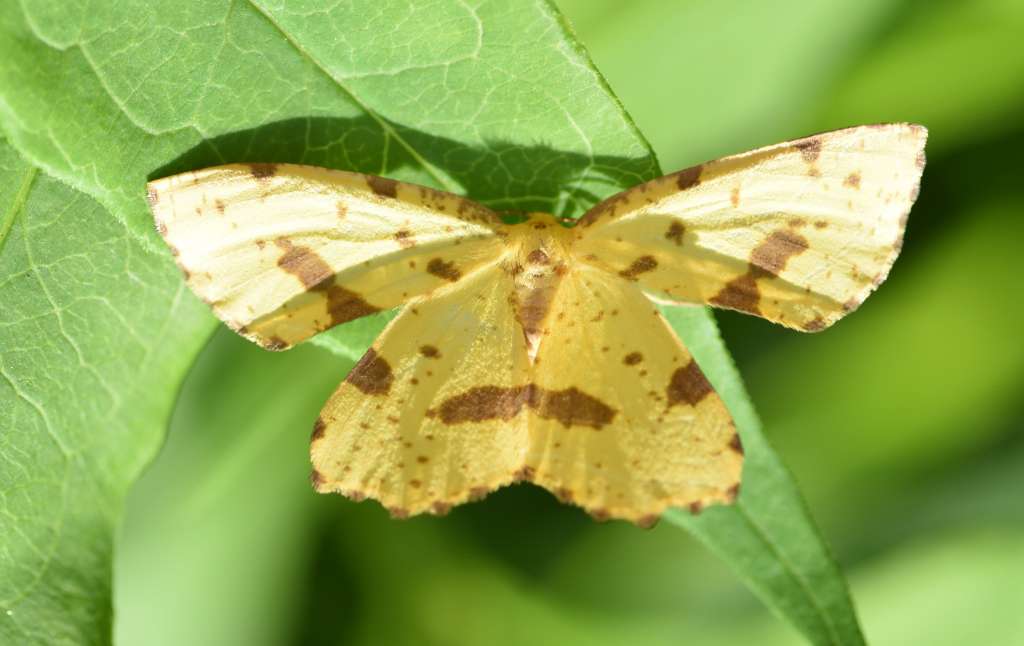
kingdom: Animalia
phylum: Arthropoda
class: Insecta
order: Lepidoptera
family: Geometridae
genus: Xanthotype
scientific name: Xanthotype
